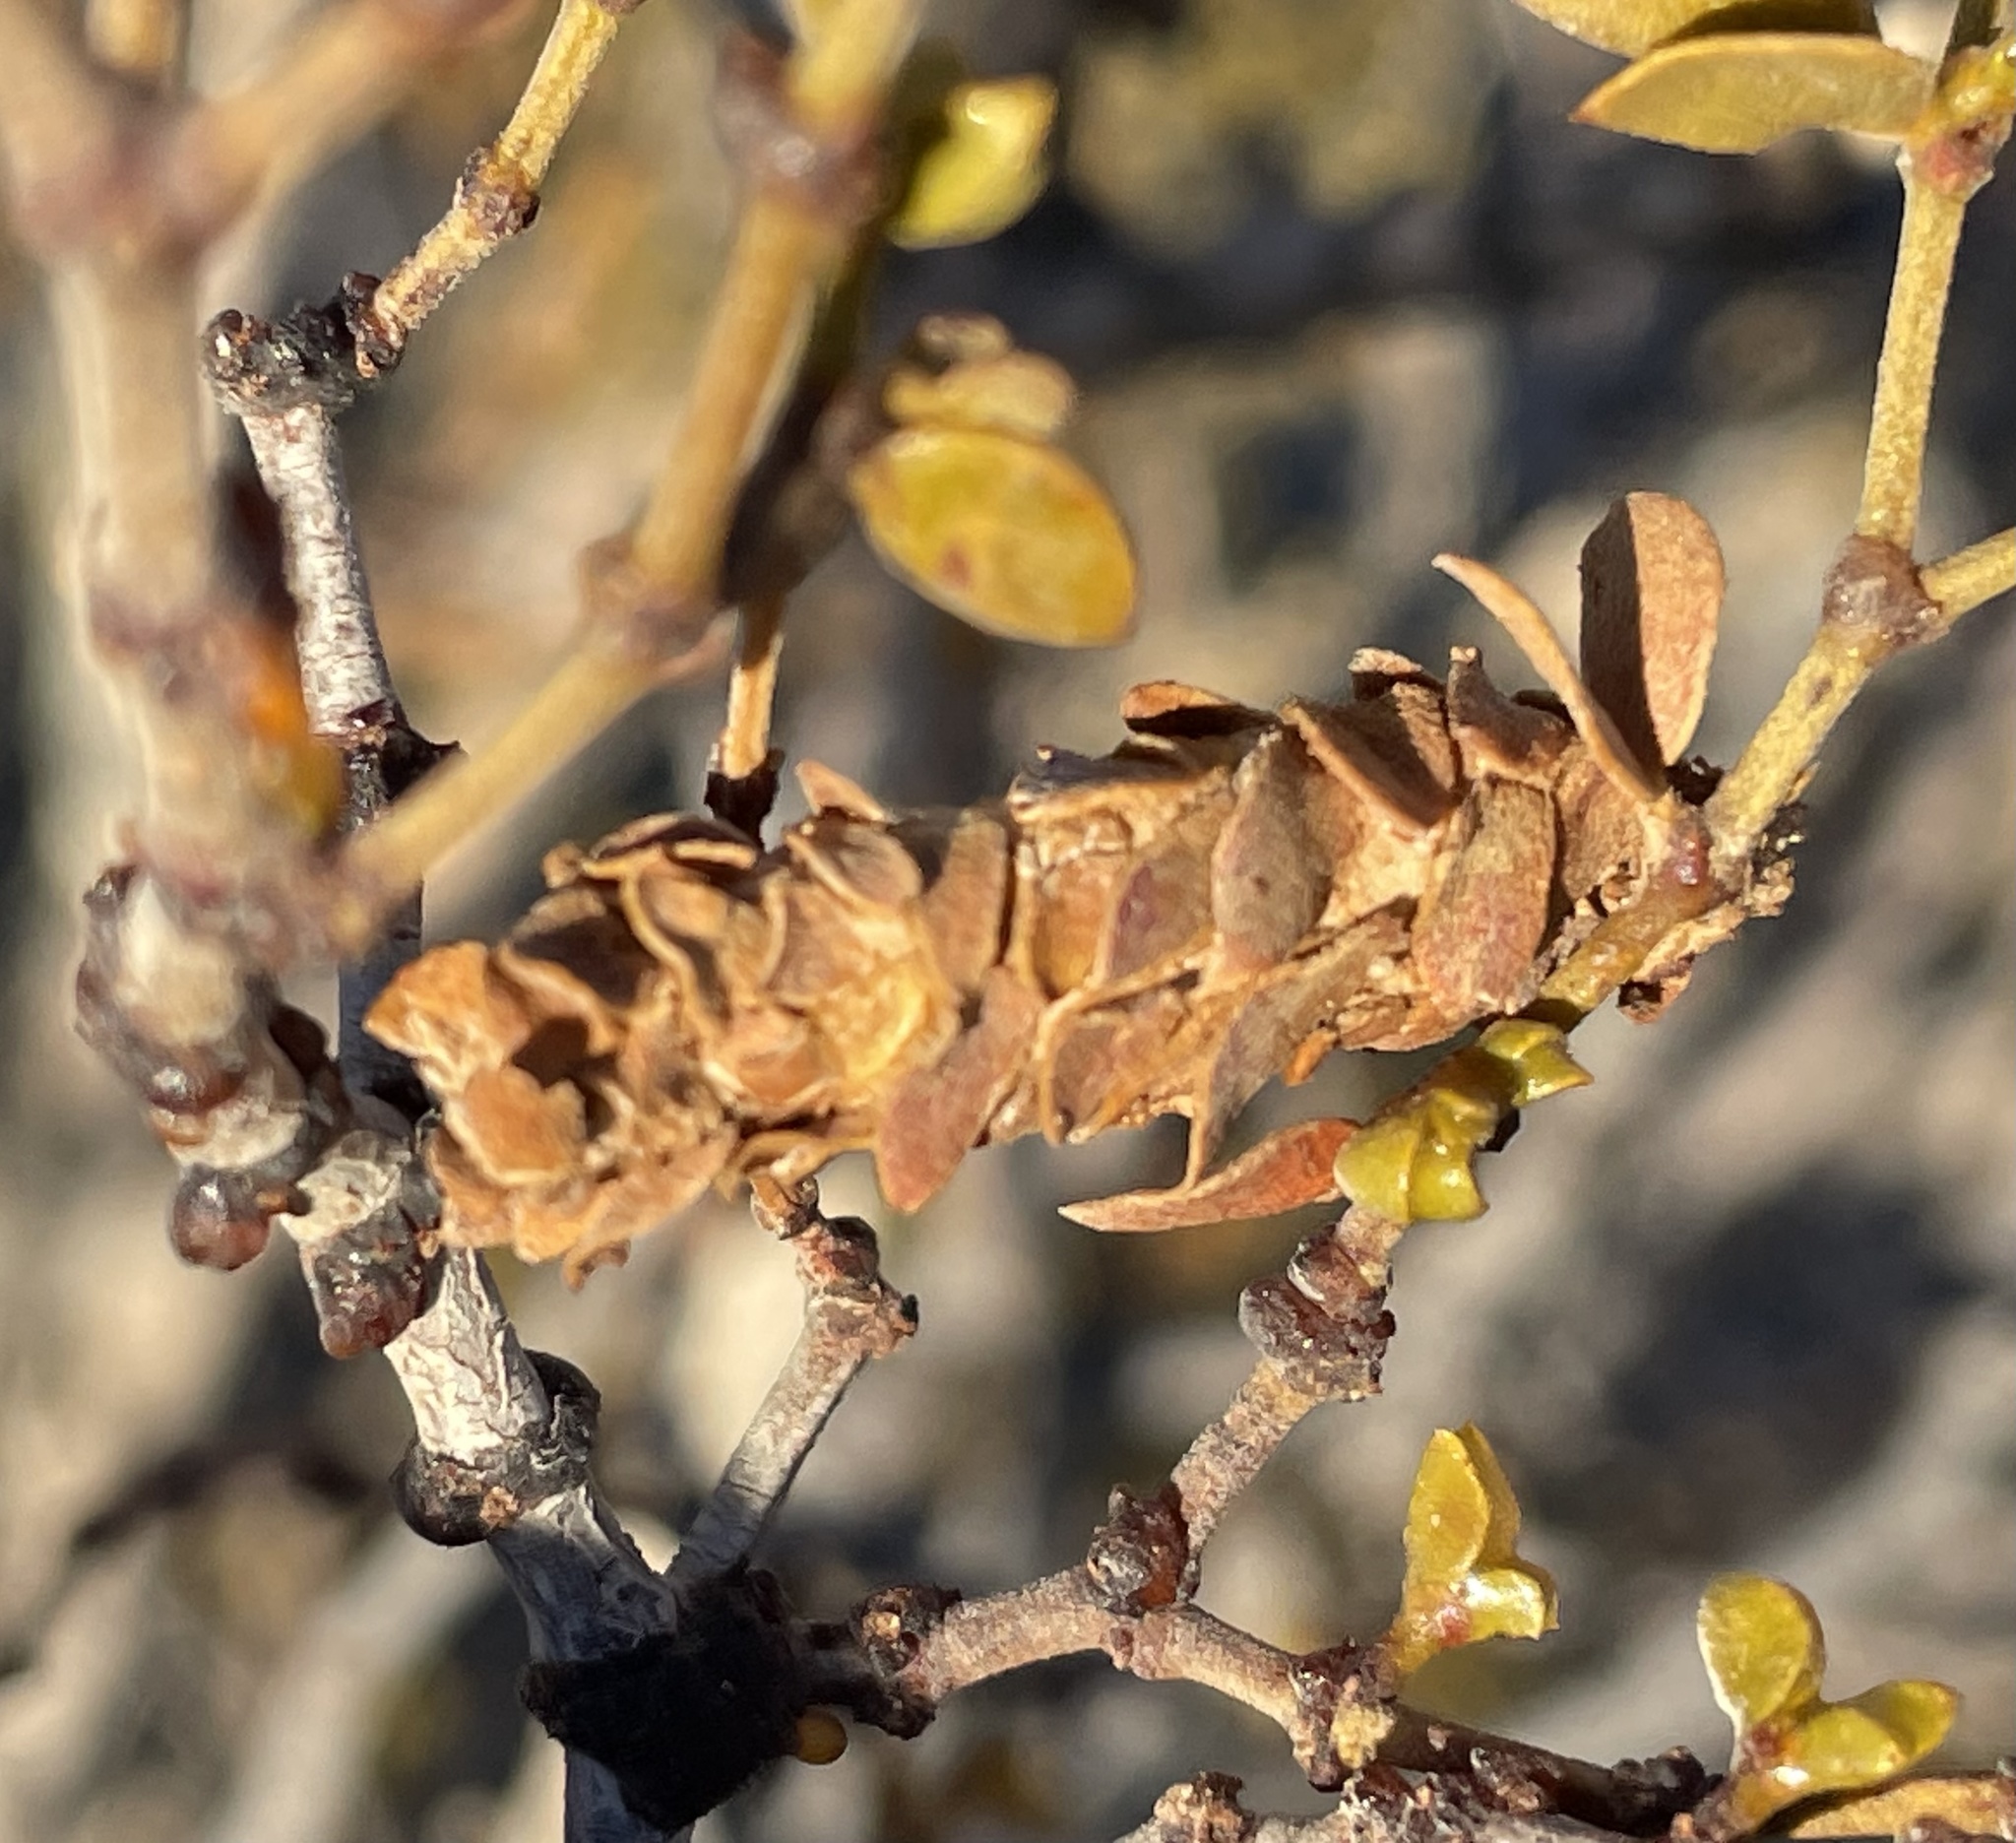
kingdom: Animalia
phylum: Arthropoda
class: Insecta
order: Lepidoptera
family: Psychidae
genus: Thyridopteryx
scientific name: Thyridopteryx meadii
